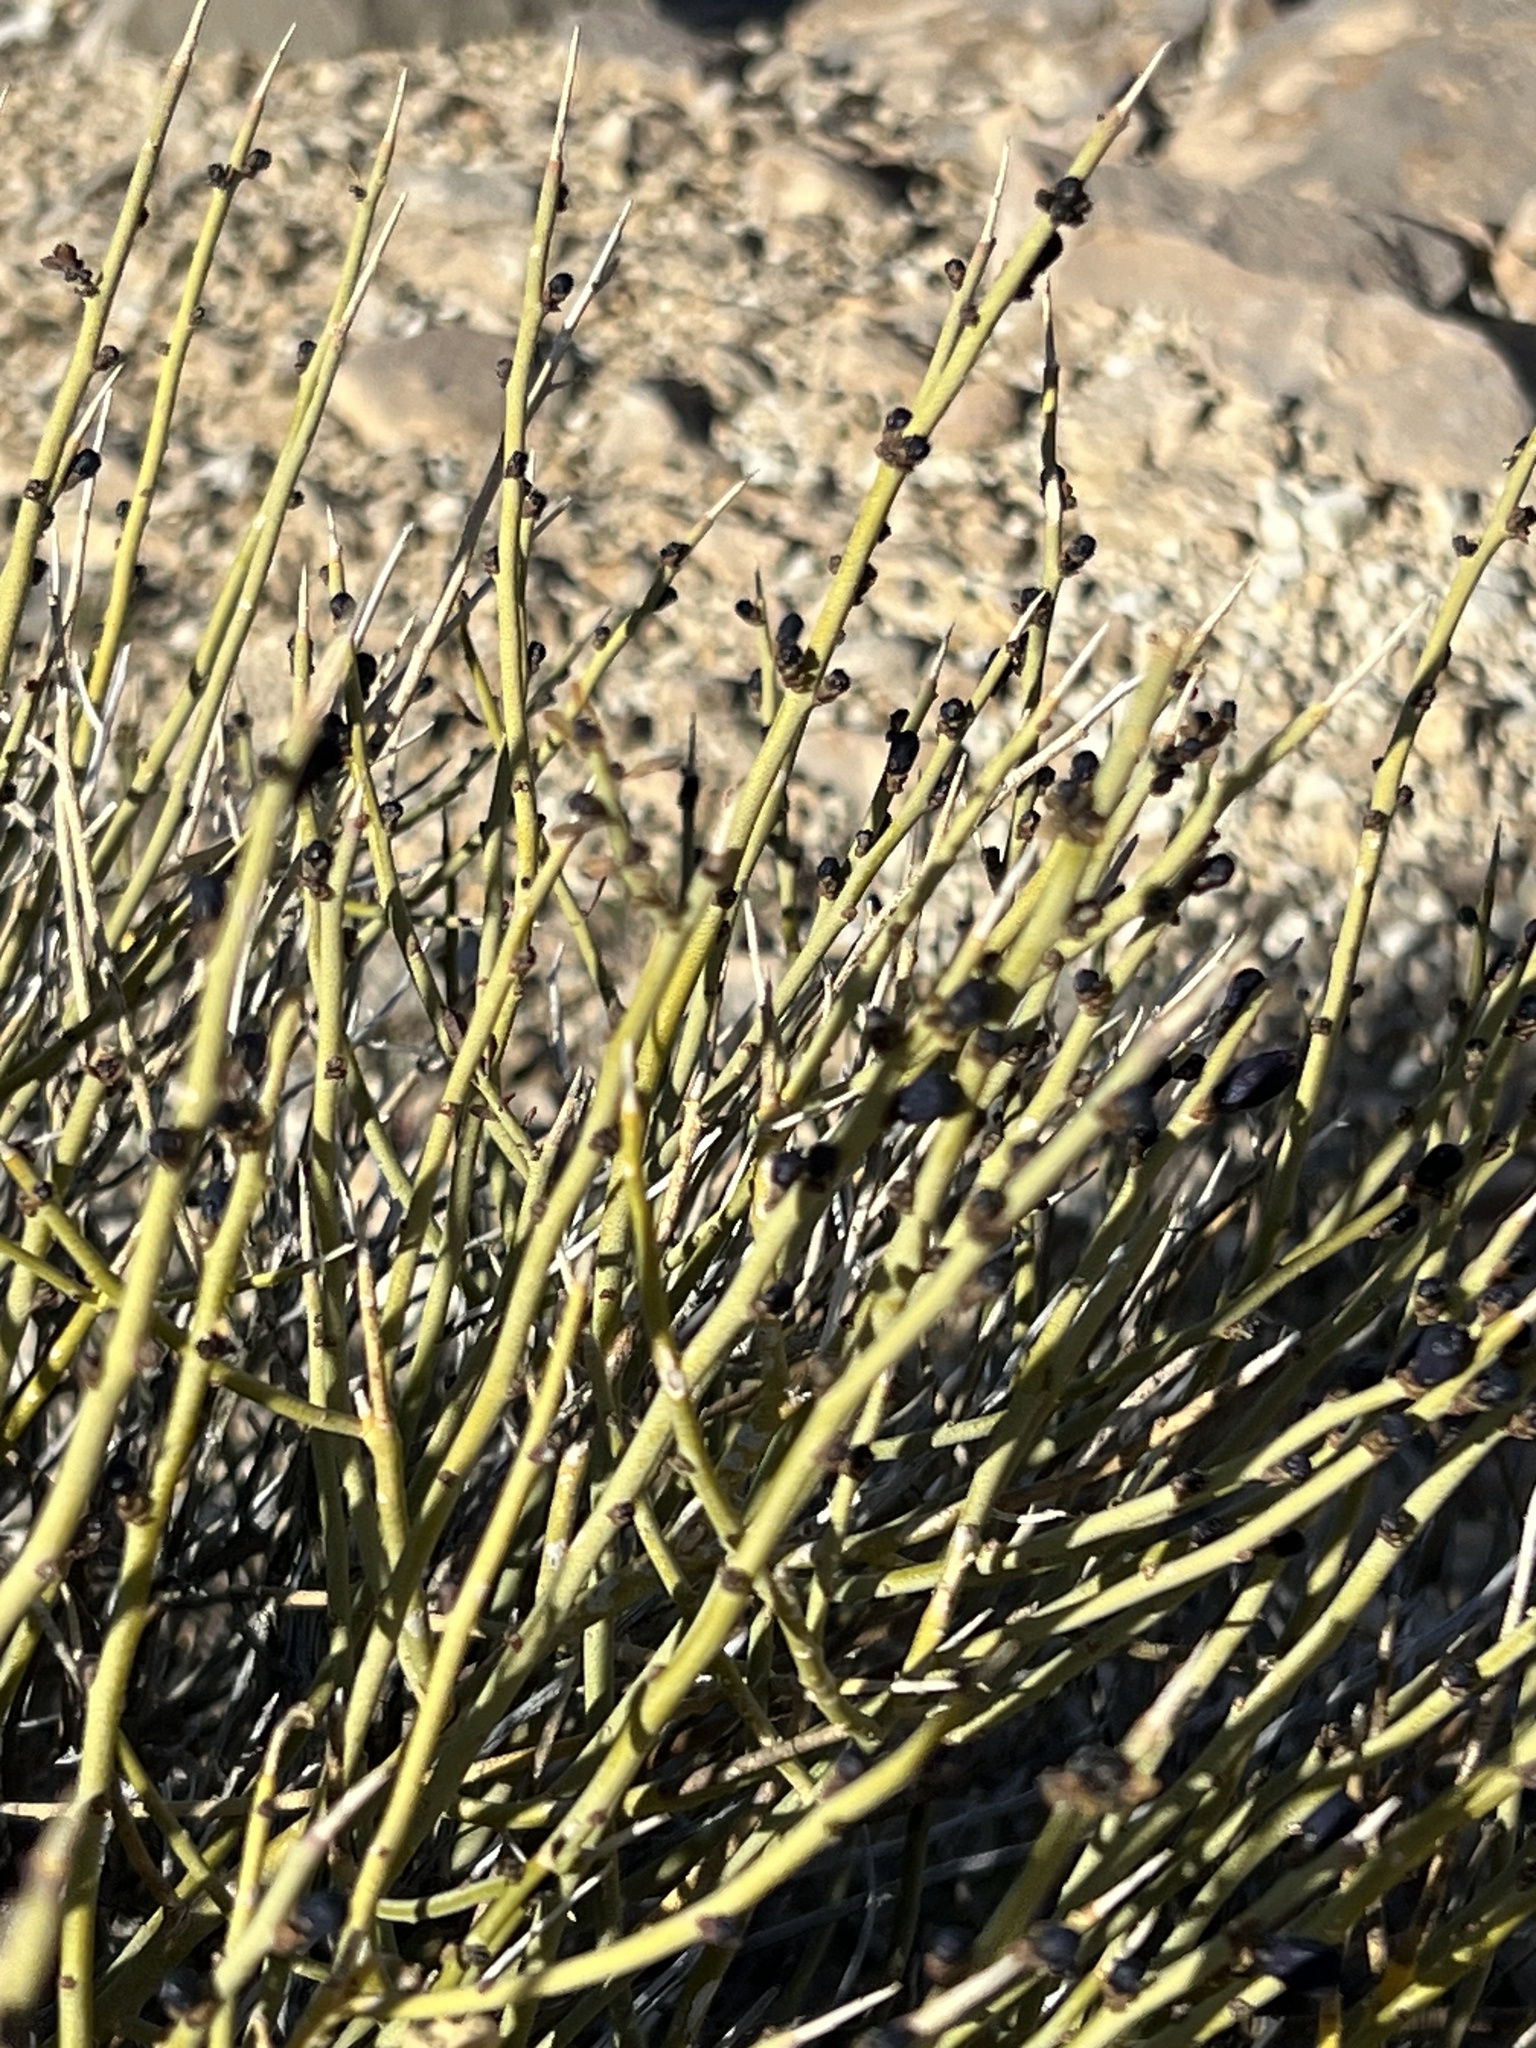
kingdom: Plantae
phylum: Tracheophyta
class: Magnoliopsida
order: Sapindales
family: Rutaceae
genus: Thamnosma
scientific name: Thamnosma montana
